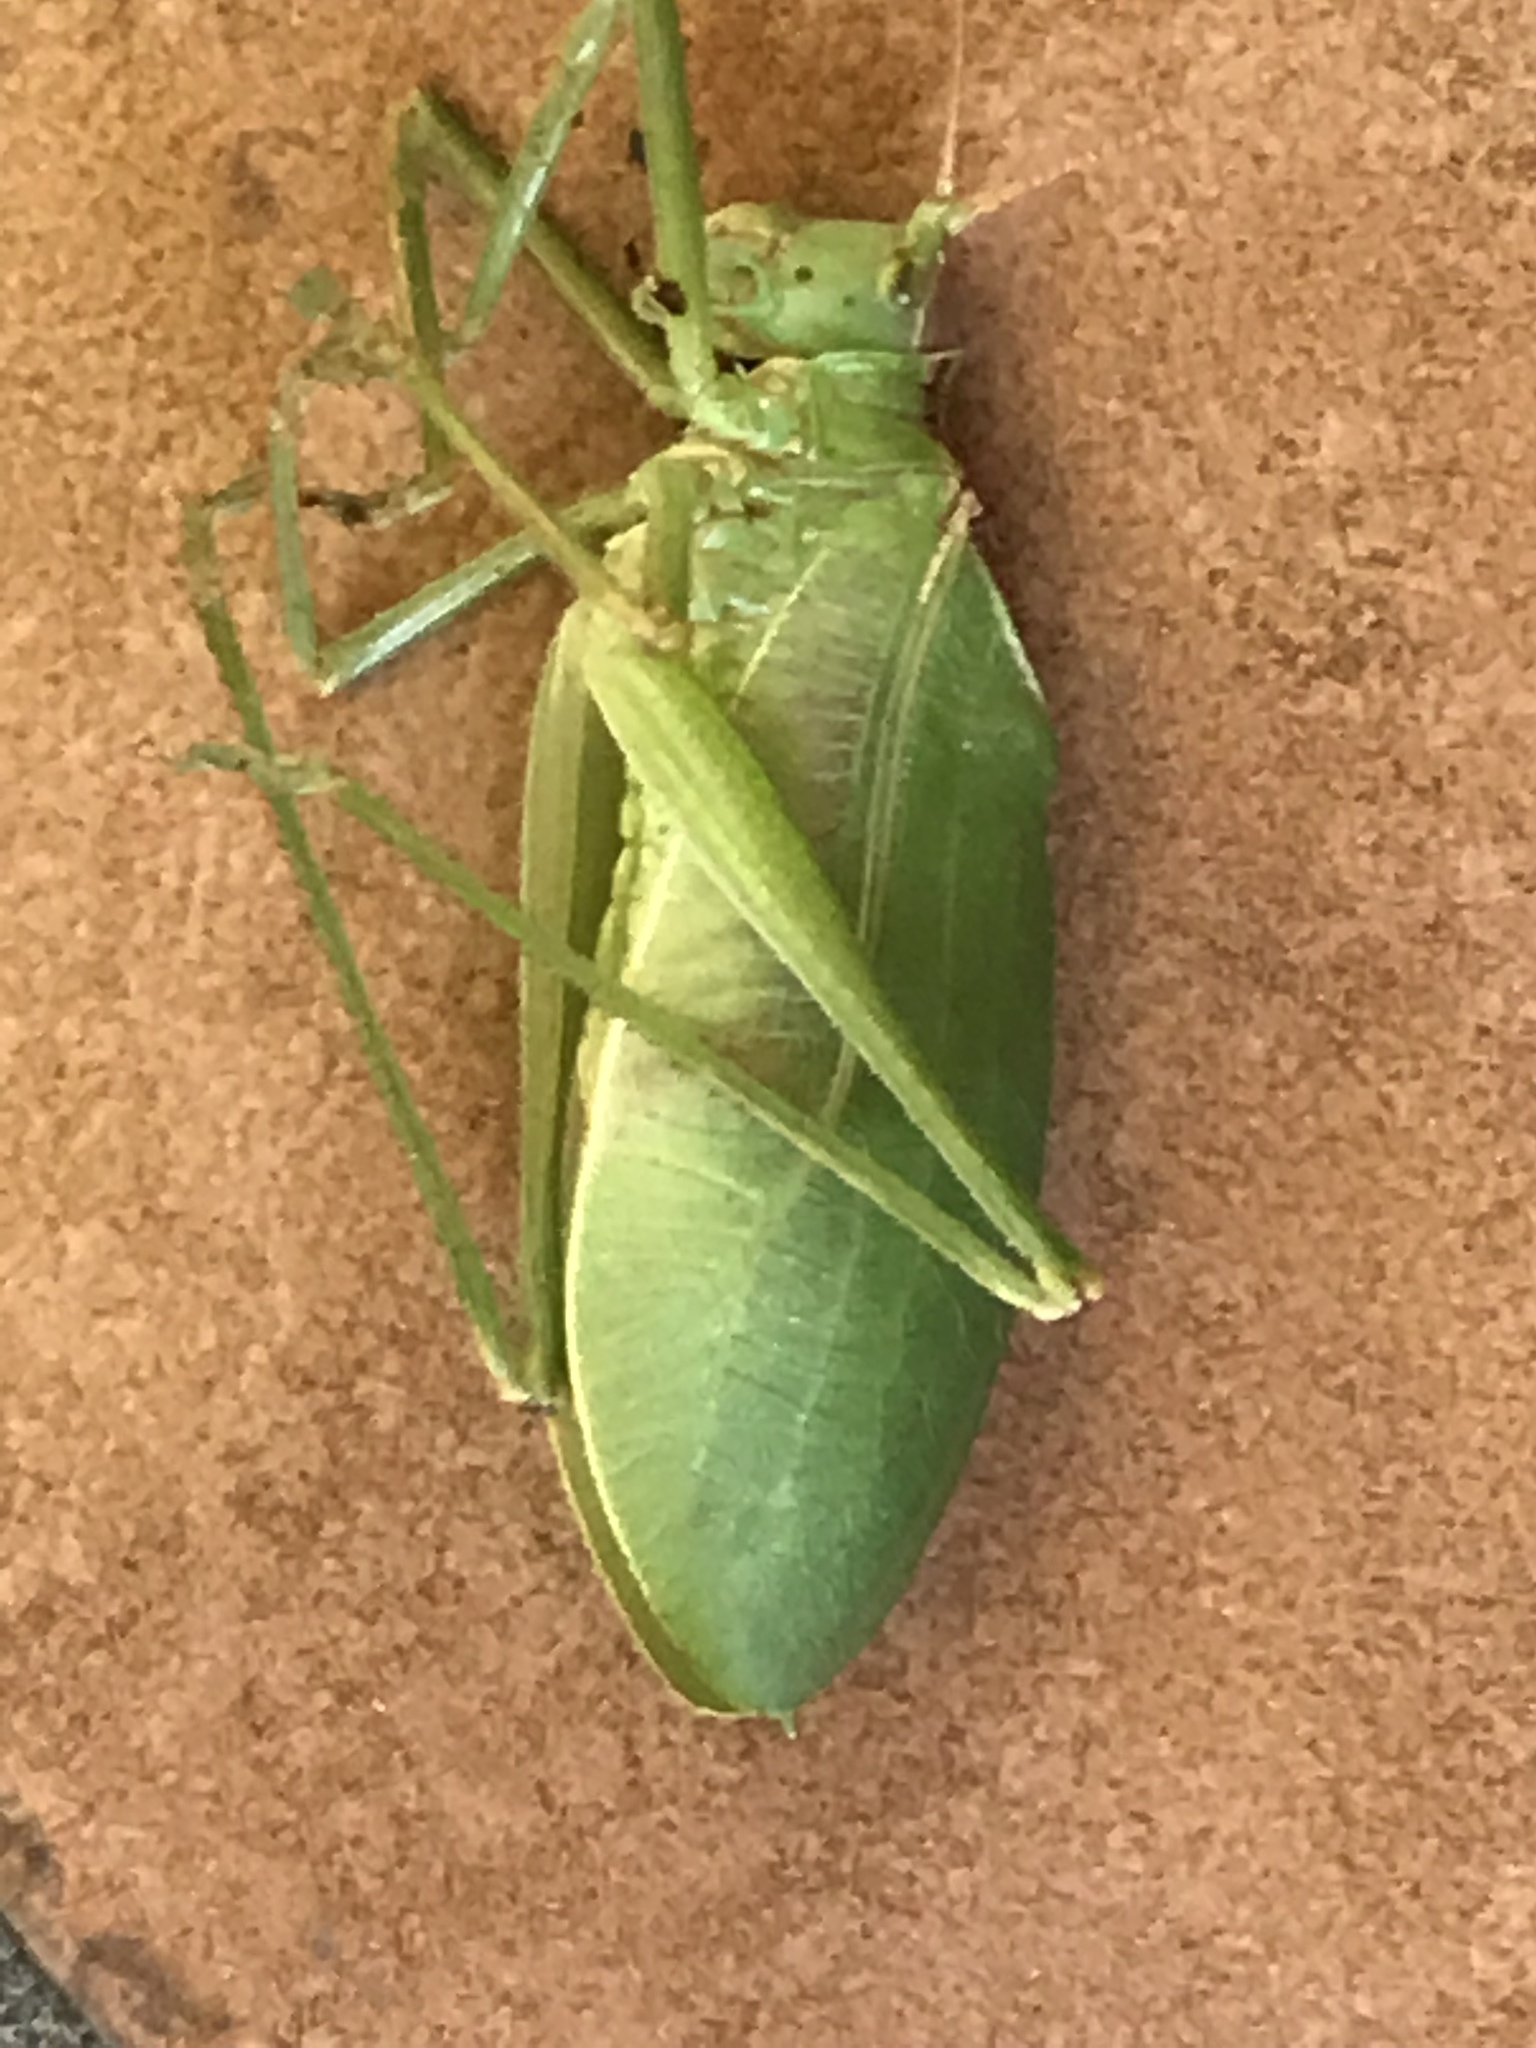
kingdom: Animalia
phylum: Arthropoda
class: Insecta
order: Orthoptera
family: Tettigoniidae
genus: Pterophylla
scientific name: Pterophylla beltrani
